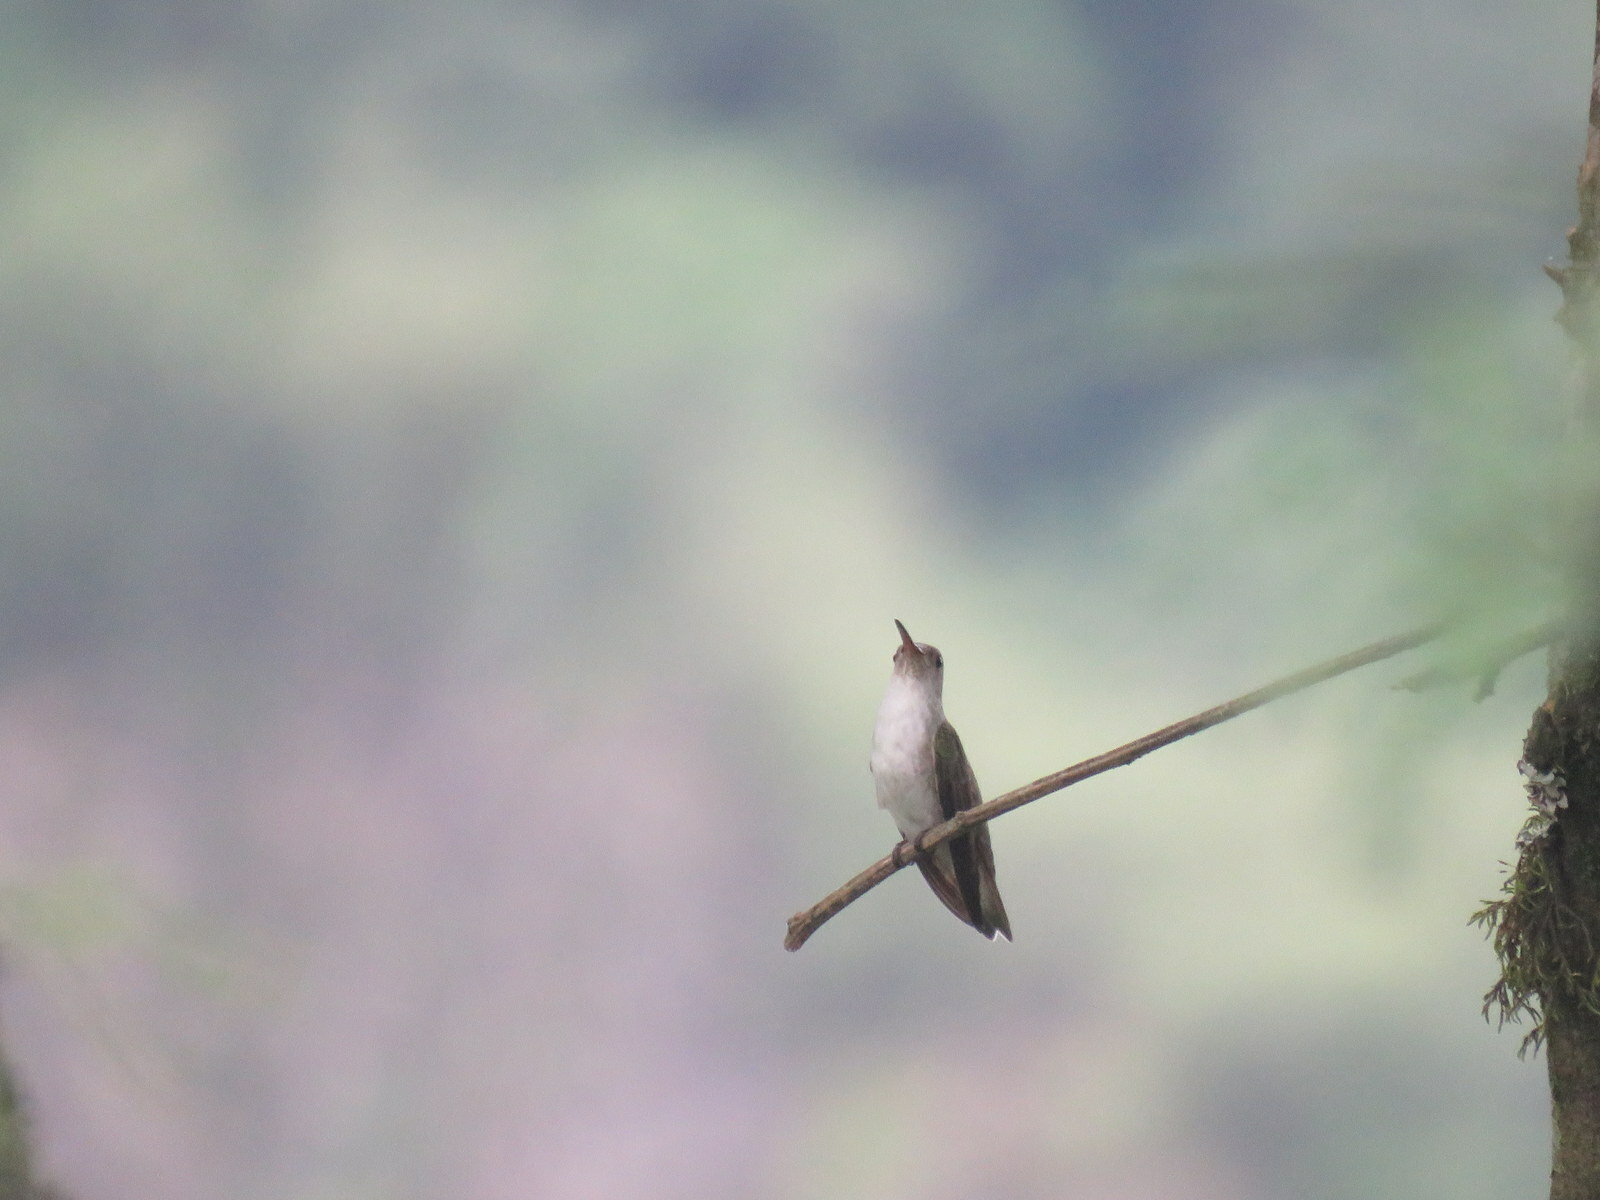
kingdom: Animalia
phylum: Chordata
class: Aves
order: Apodiformes
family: Trochilidae
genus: Elliotomyia
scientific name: Elliotomyia chionogaster
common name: White-bellied hummingbird
